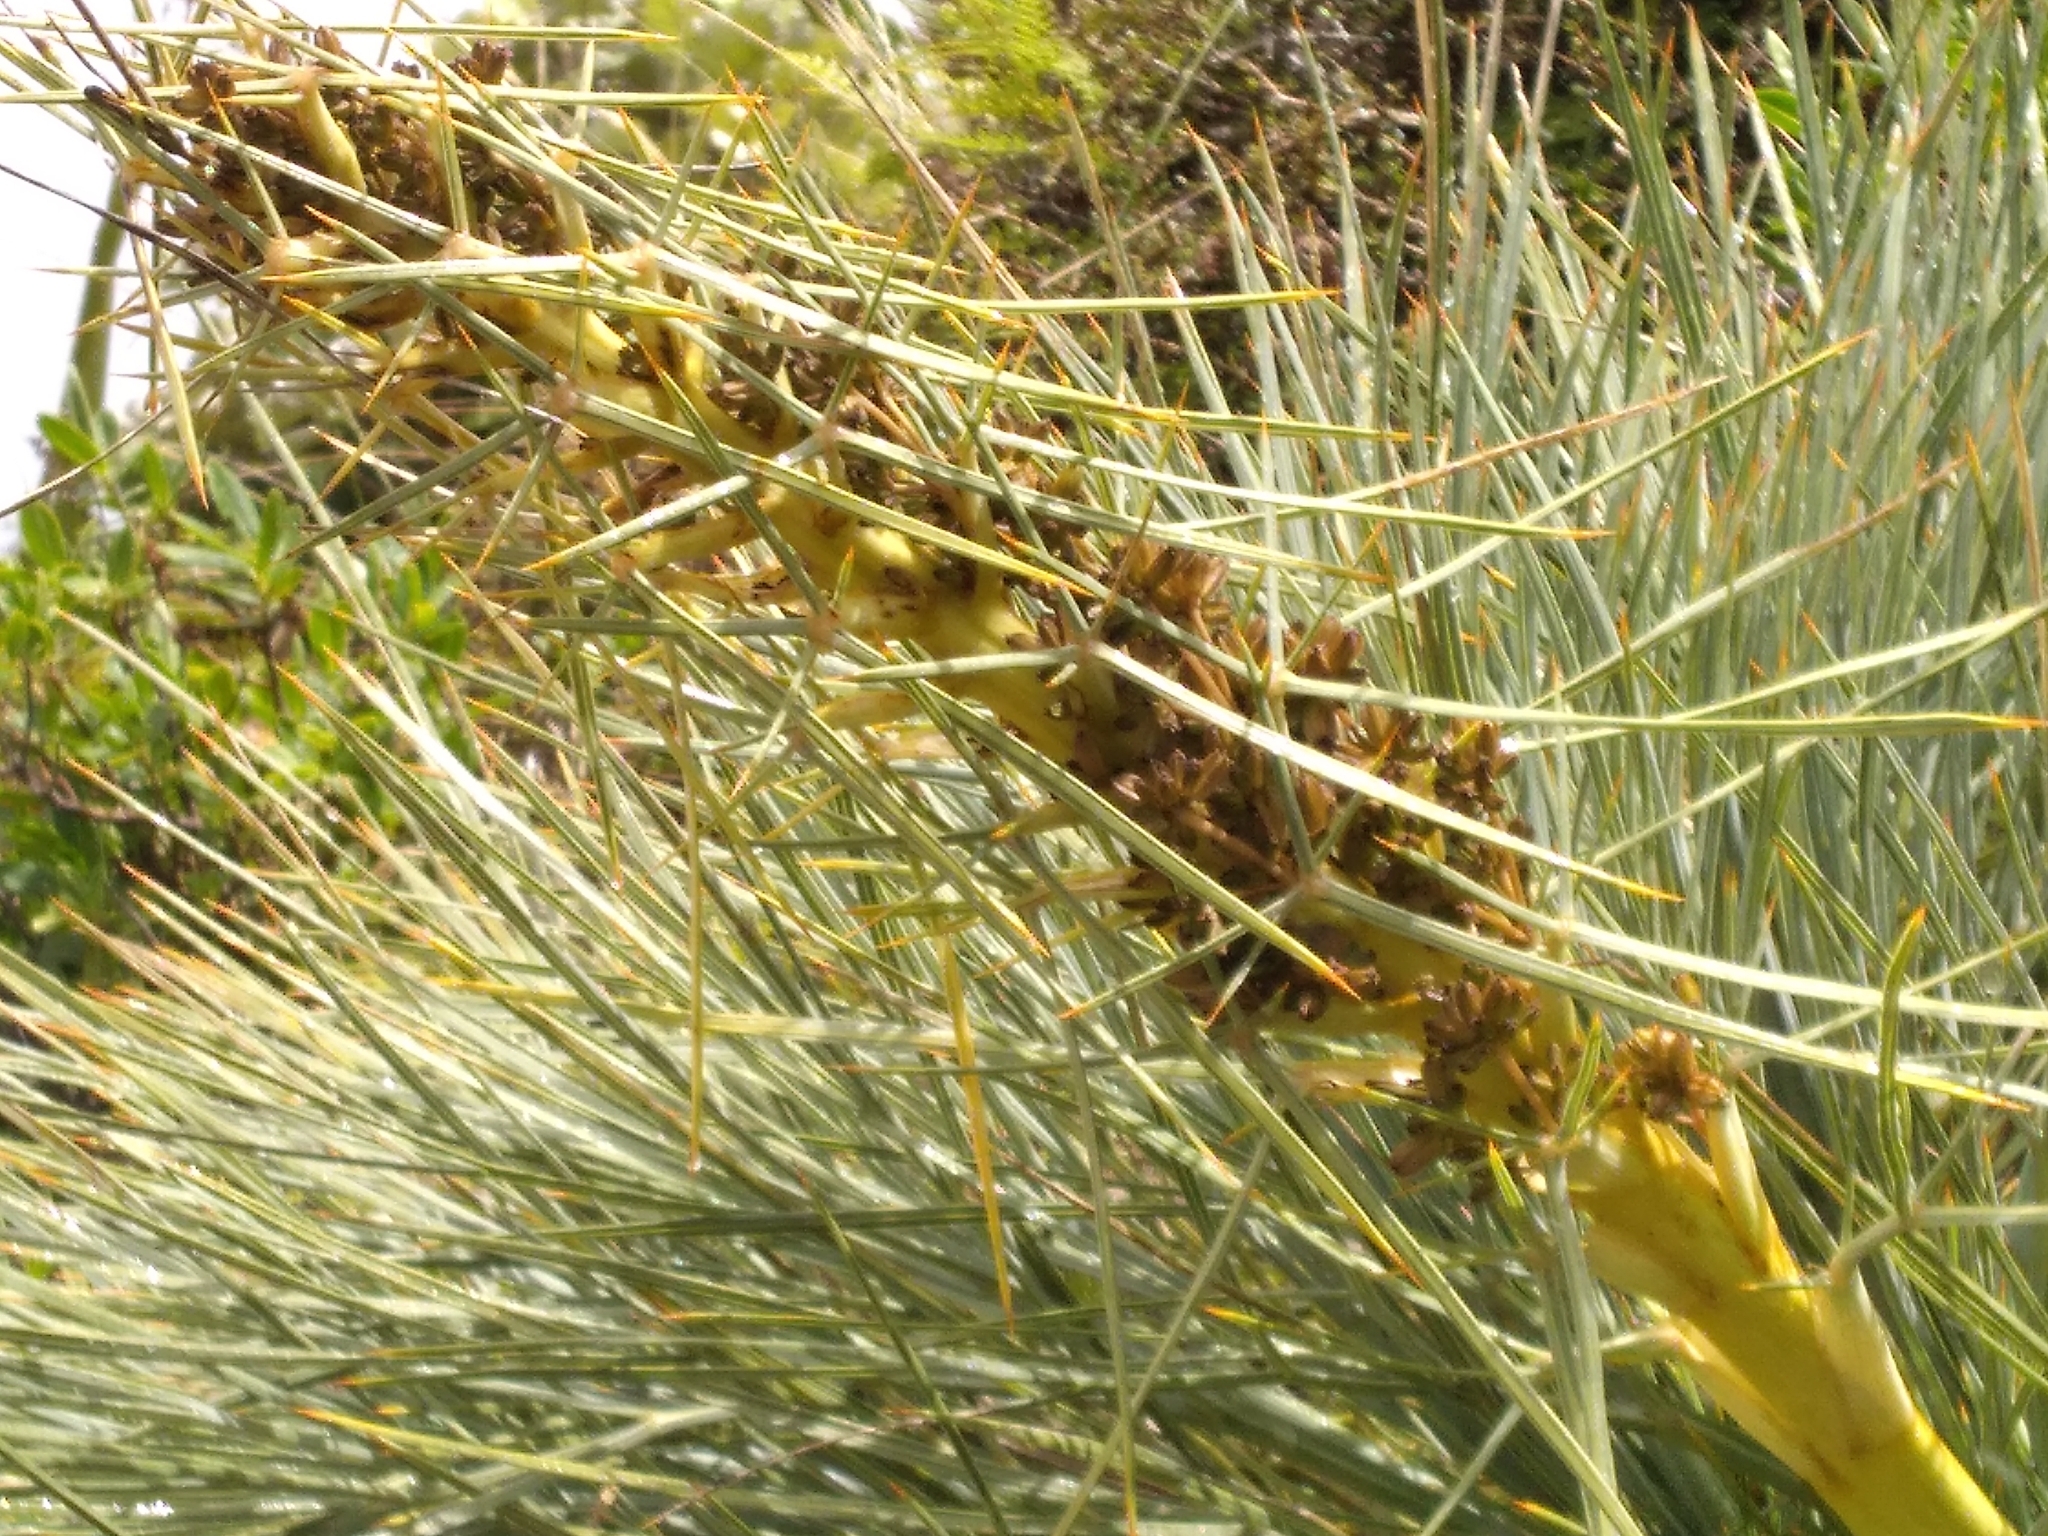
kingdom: Plantae
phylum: Tracheophyta
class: Magnoliopsida
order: Apiales
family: Apiaceae
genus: Aciphylla
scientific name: Aciphylla squarrosa
